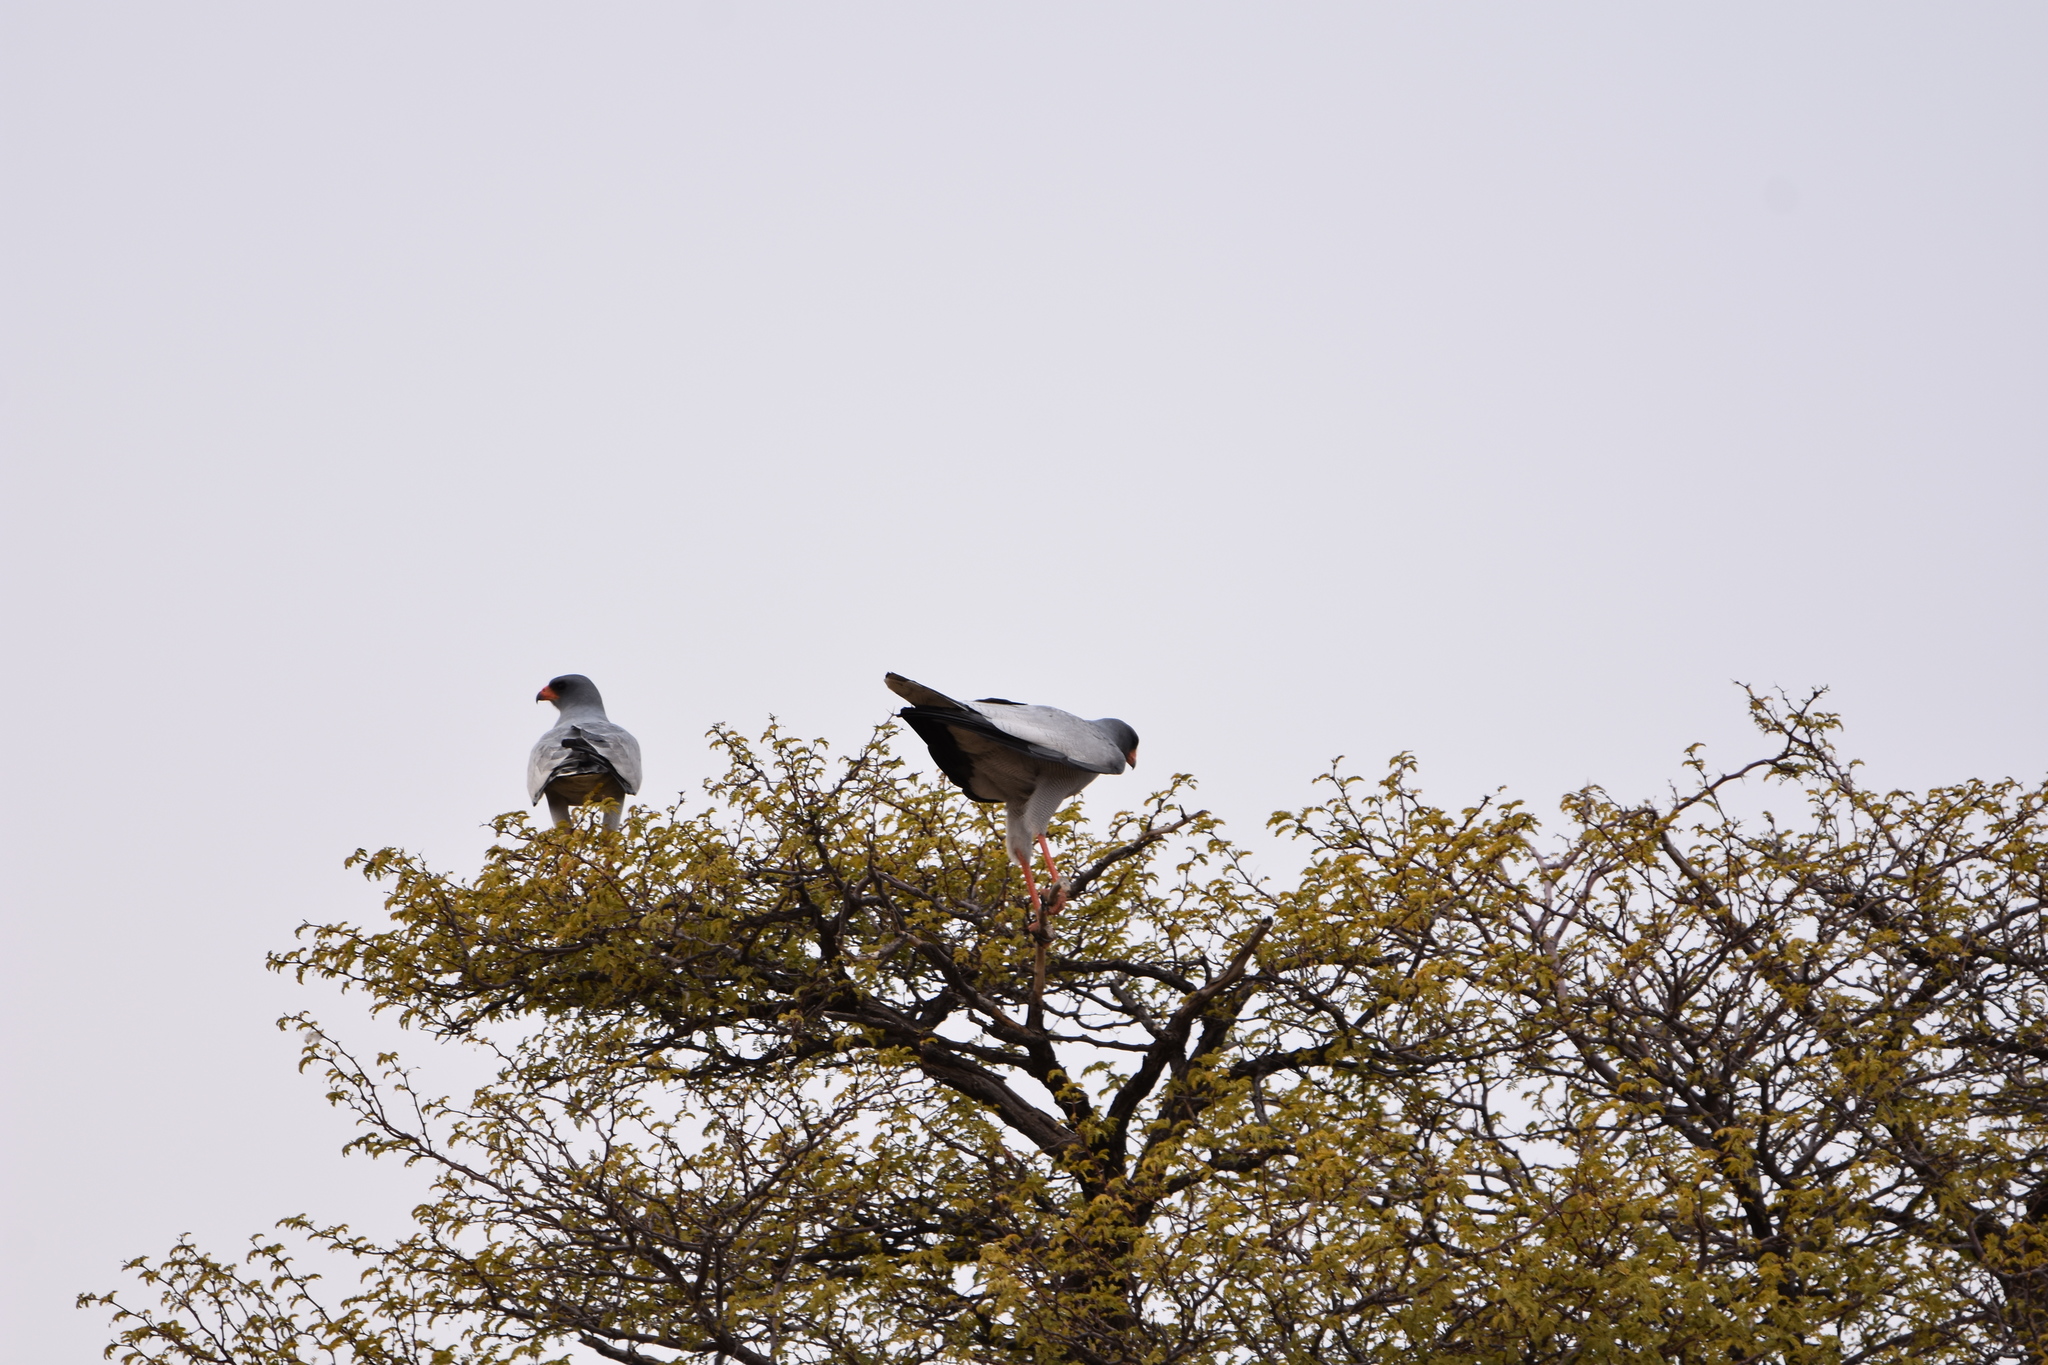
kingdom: Animalia
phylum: Chordata
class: Aves
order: Accipitriformes
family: Accipitridae
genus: Melierax
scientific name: Melierax canorus
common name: Pale chanting-goshawk
